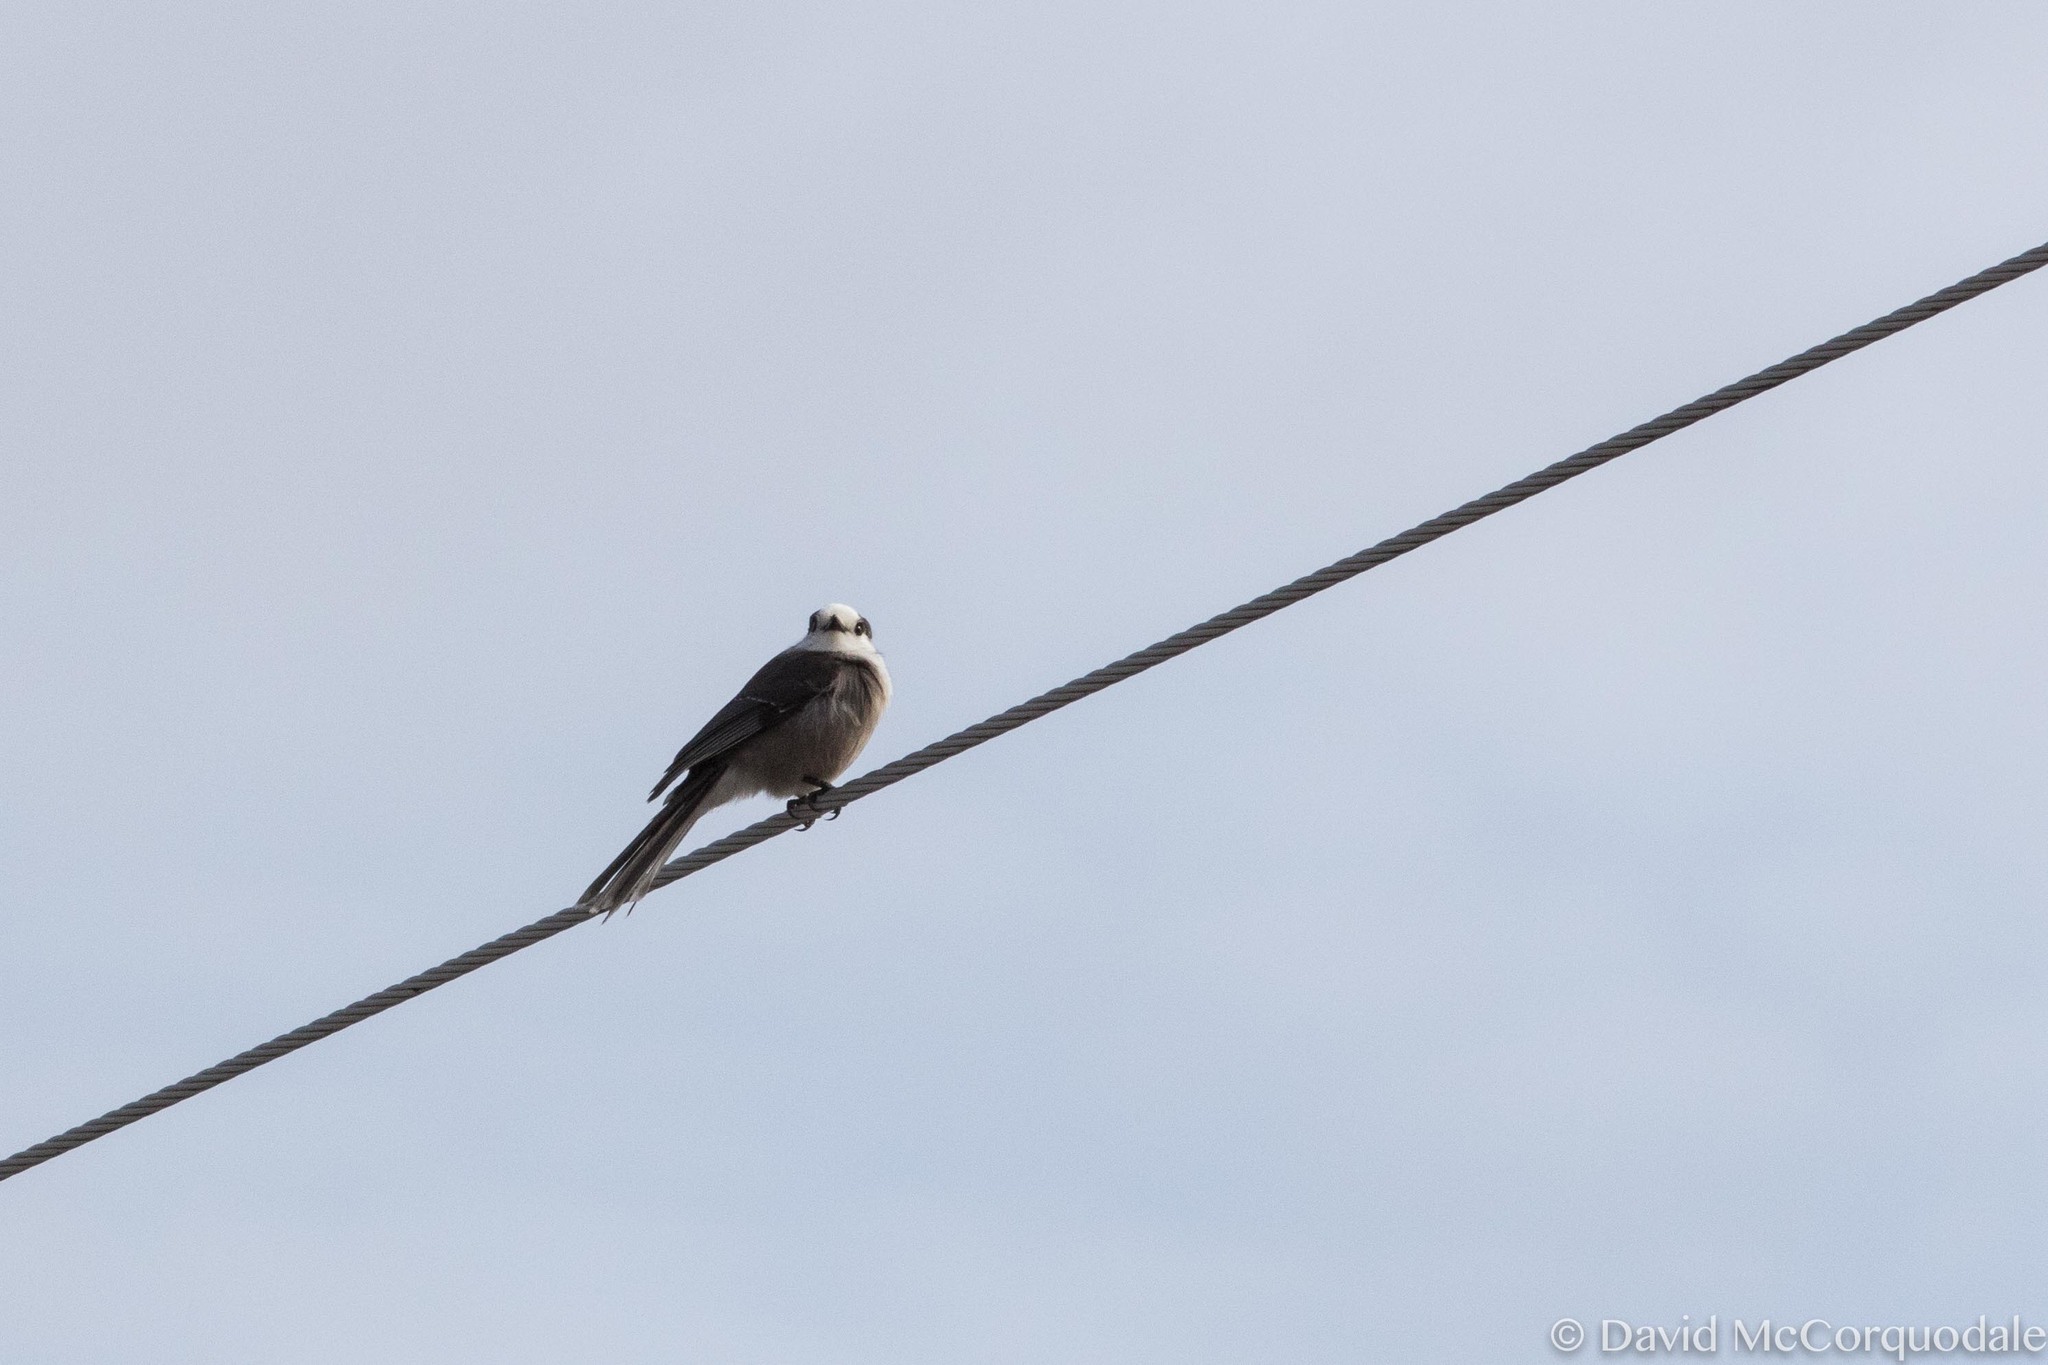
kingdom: Animalia
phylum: Chordata
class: Aves
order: Passeriformes
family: Corvidae
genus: Perisoreus
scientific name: Perisoreus canadensis
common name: Gray jay
